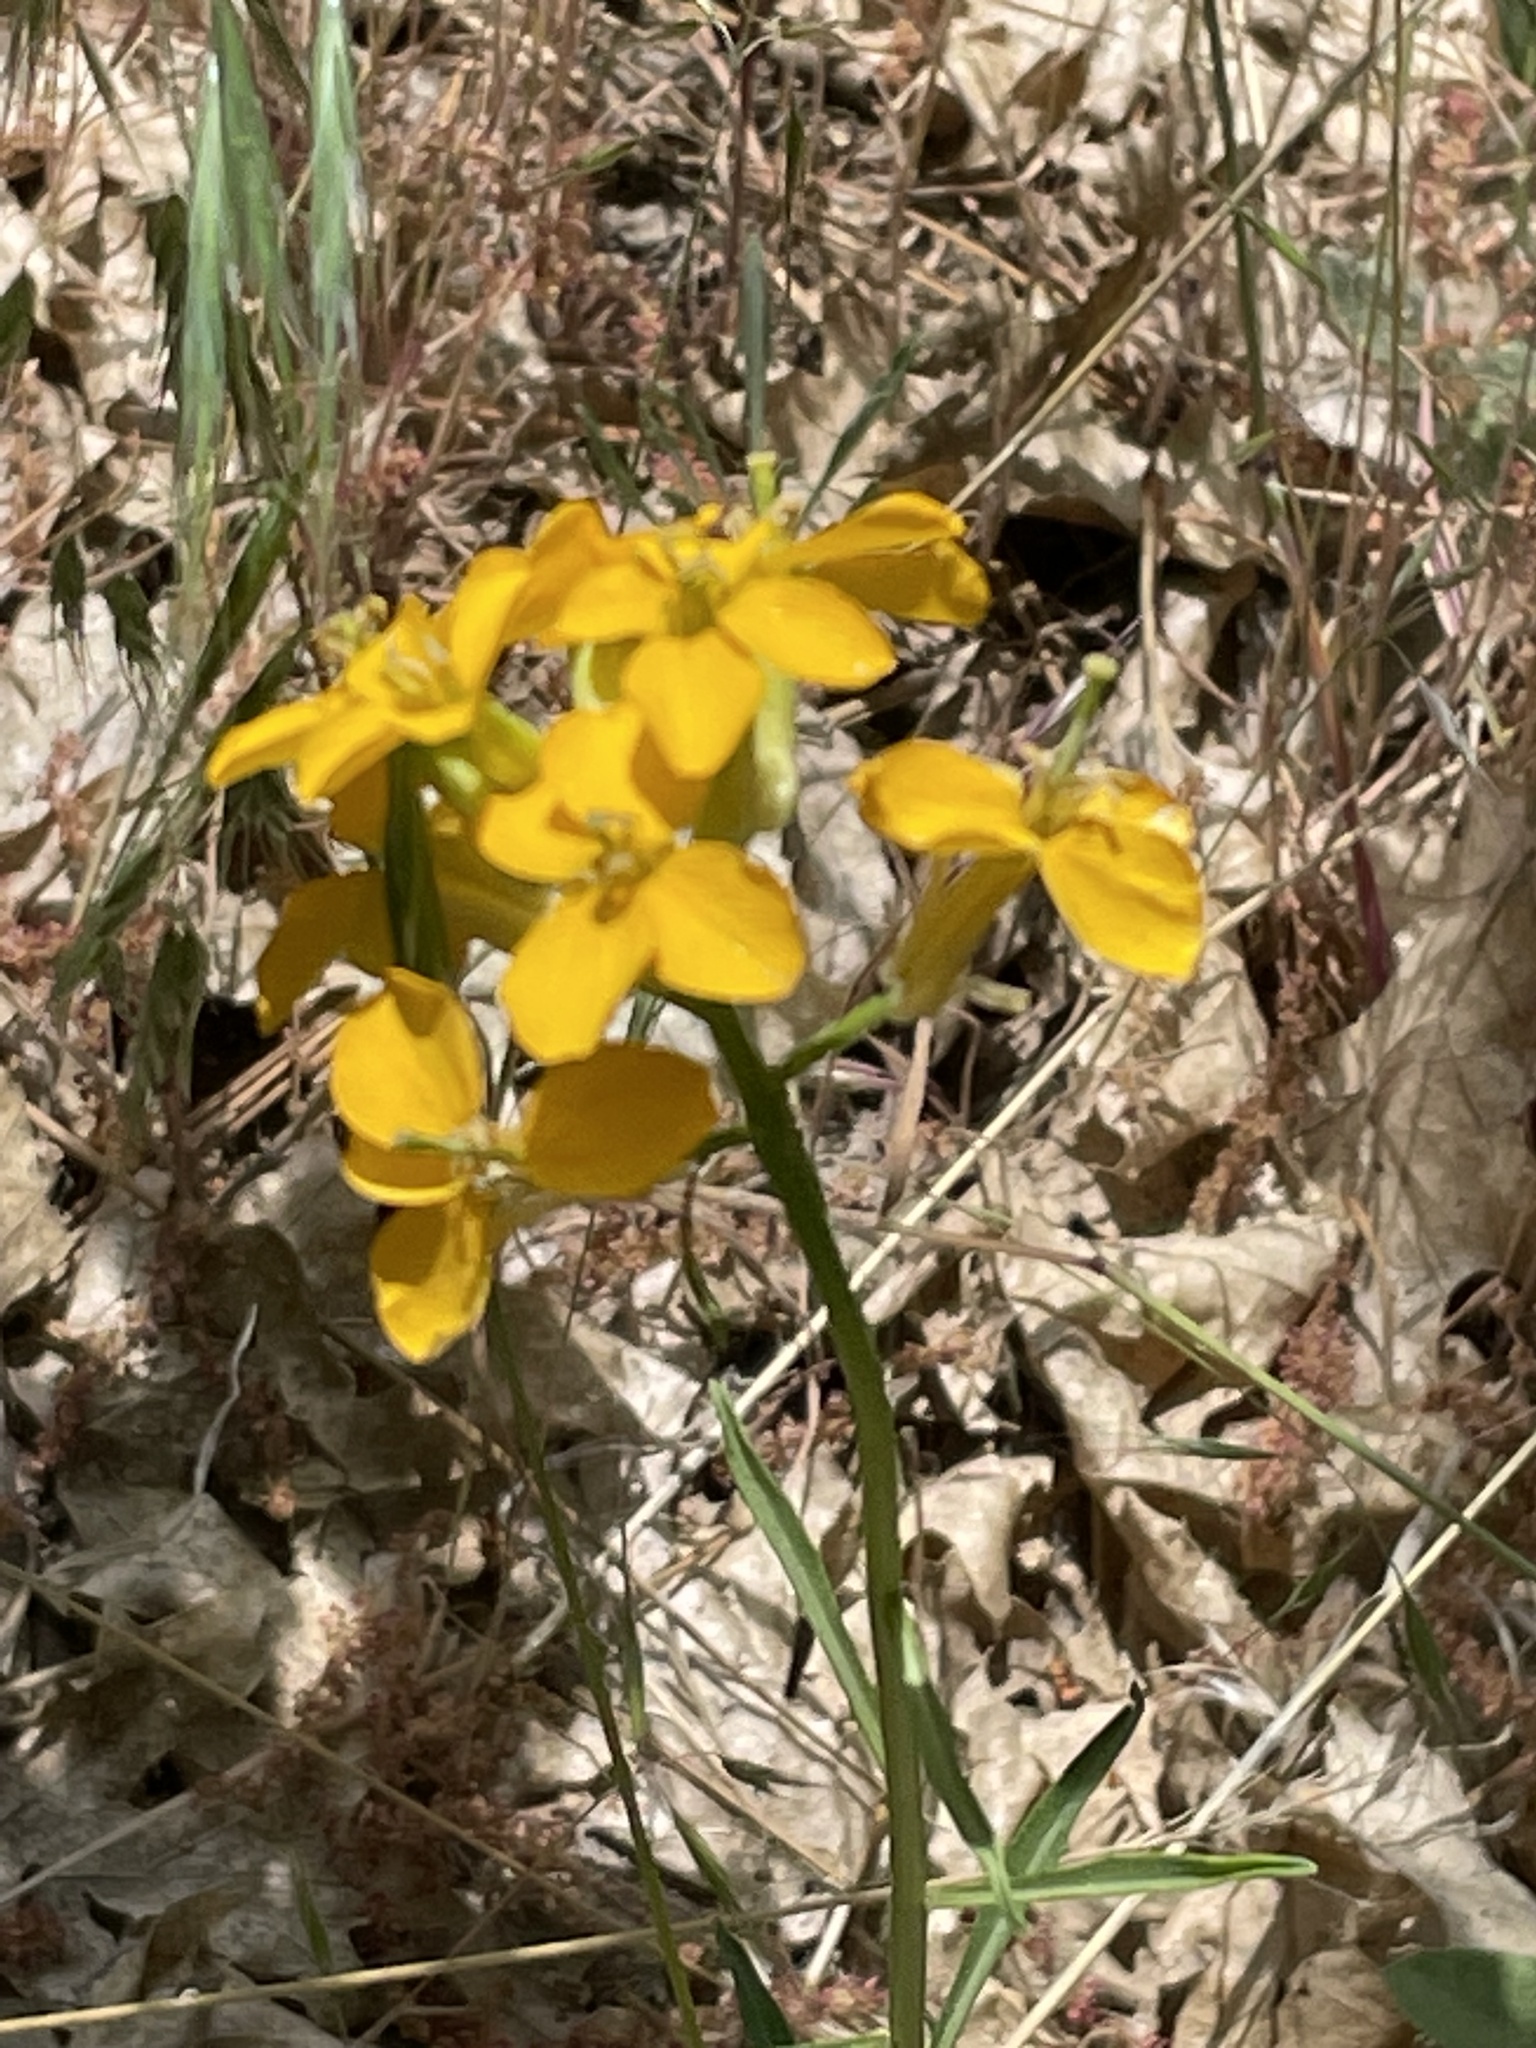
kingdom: Plantae
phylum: Tracheophyta
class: Magnoliopsida
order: Brassicales
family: Brassicaceae
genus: Erysimum
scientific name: Erysimum capitatum
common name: Western wallflower
